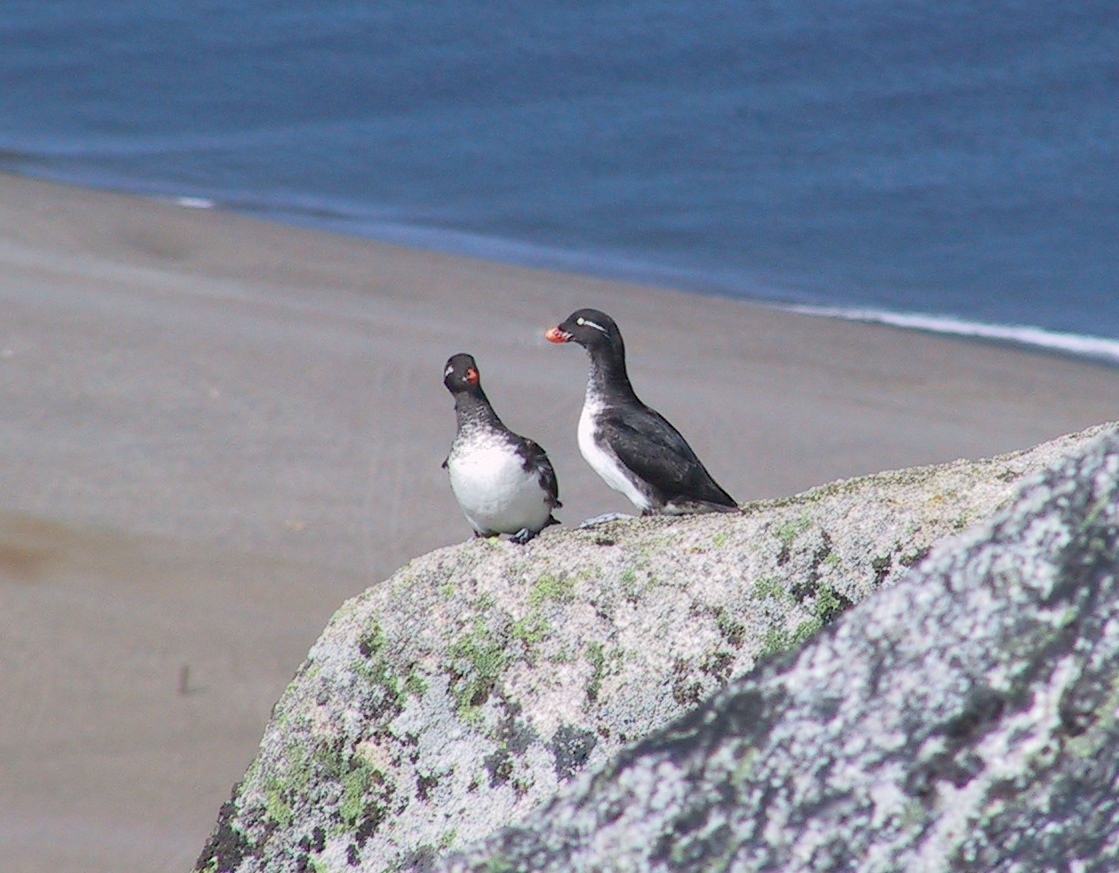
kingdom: Animalia
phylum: Chordata
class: Aves
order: Charadriiformes
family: Alcidae
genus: Aethia
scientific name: Aethia psittacula
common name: Parakeet auklet
